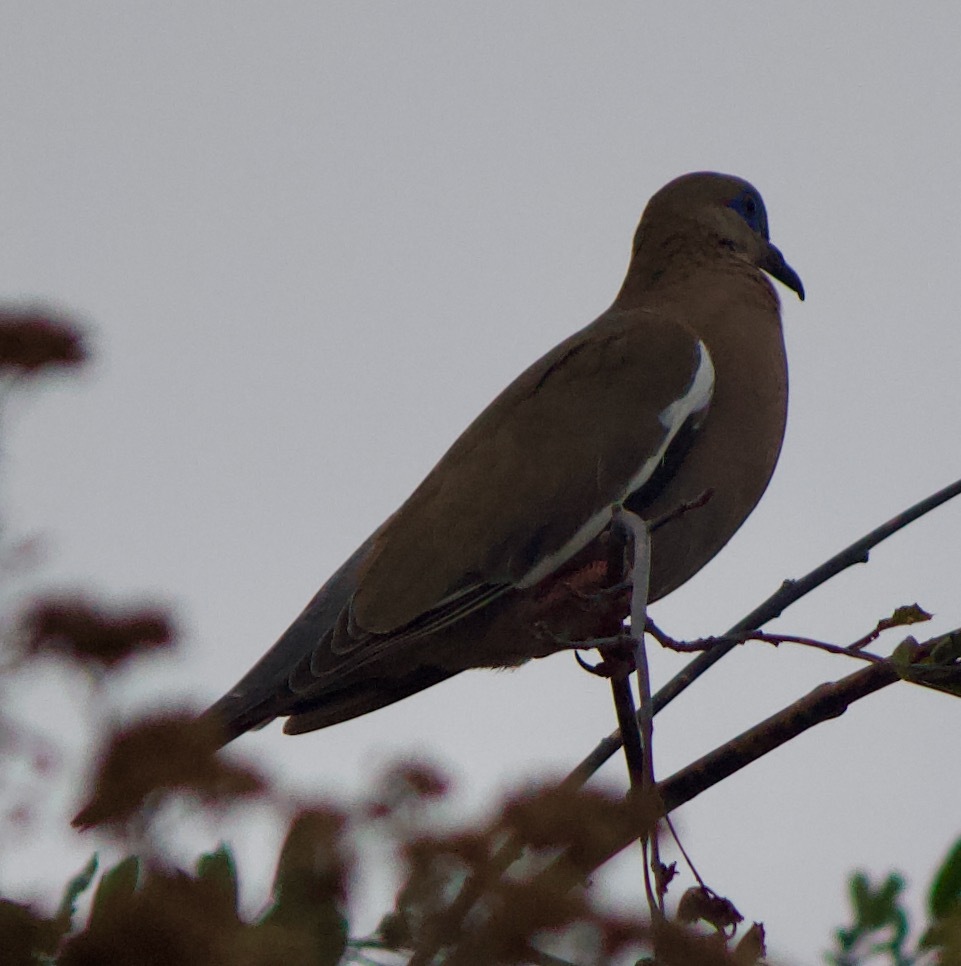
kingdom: Animalia
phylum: Chordata
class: Aves
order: Columbiformes
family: Columbidae
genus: Zenaida
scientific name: Zenaida meloda
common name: West peruvian dove
